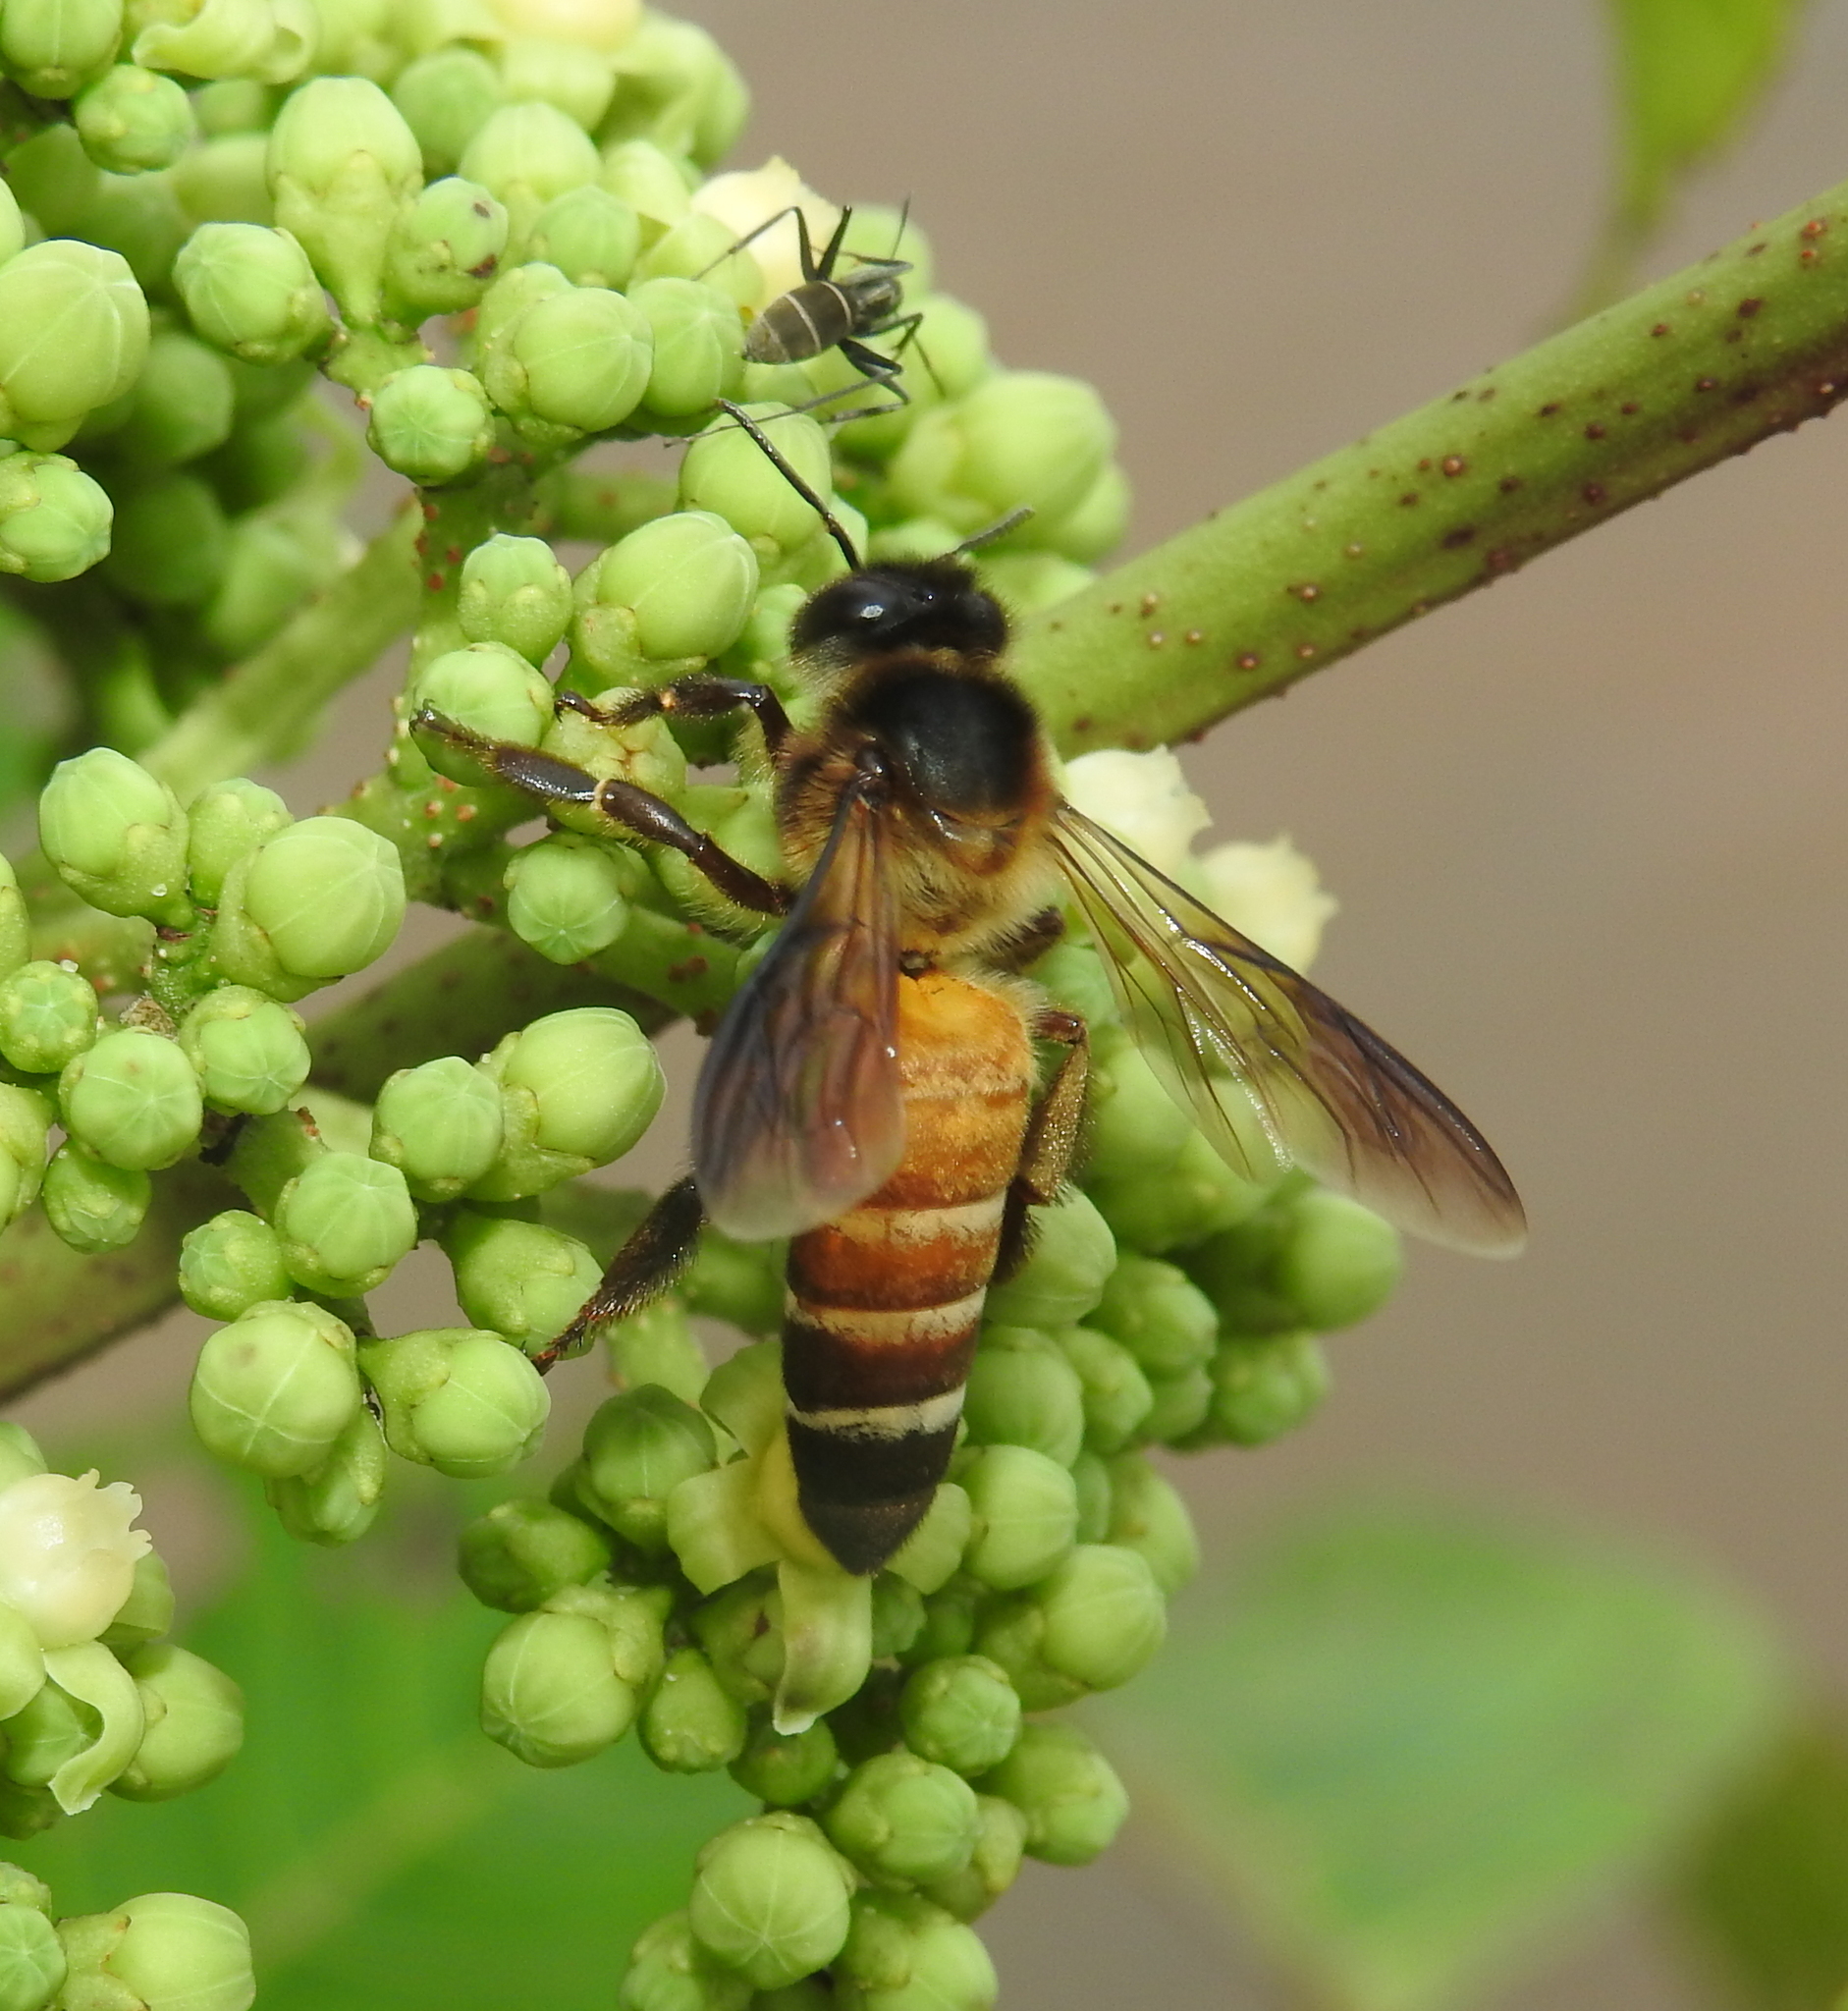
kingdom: Animalia
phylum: Arthropoda
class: Insecta
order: Hymenoptera
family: Apidae
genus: Apis
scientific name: Apis dorsata
